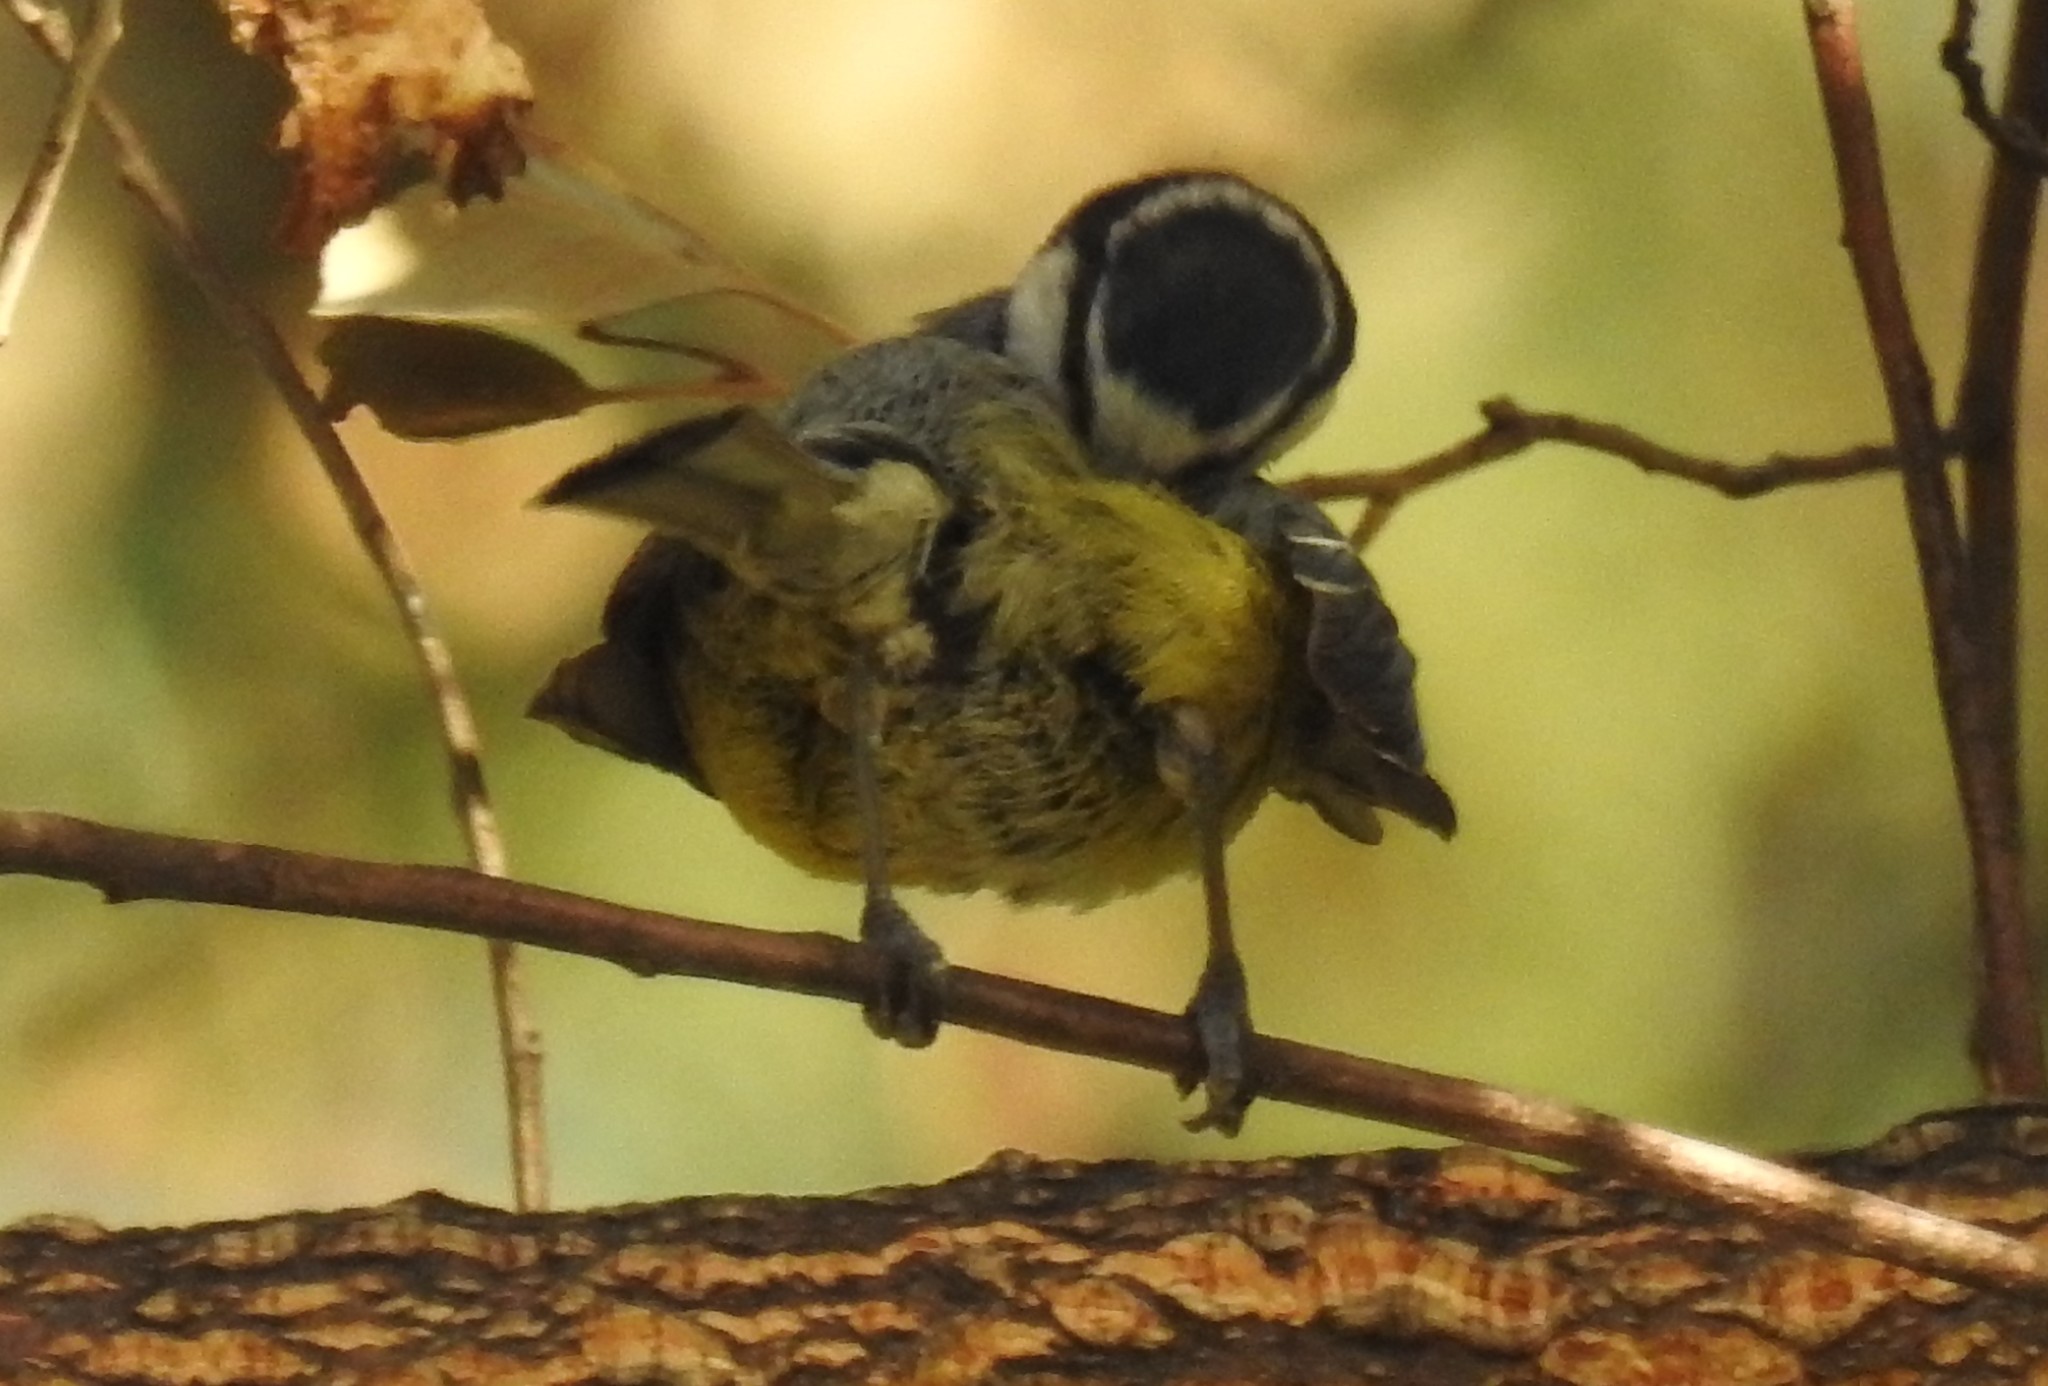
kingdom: Animalia
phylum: Chordata
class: Aves
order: Passeriformes
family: Paridae
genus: Cyanistes
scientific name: Cyanistes teneriffae
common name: African blue tit
